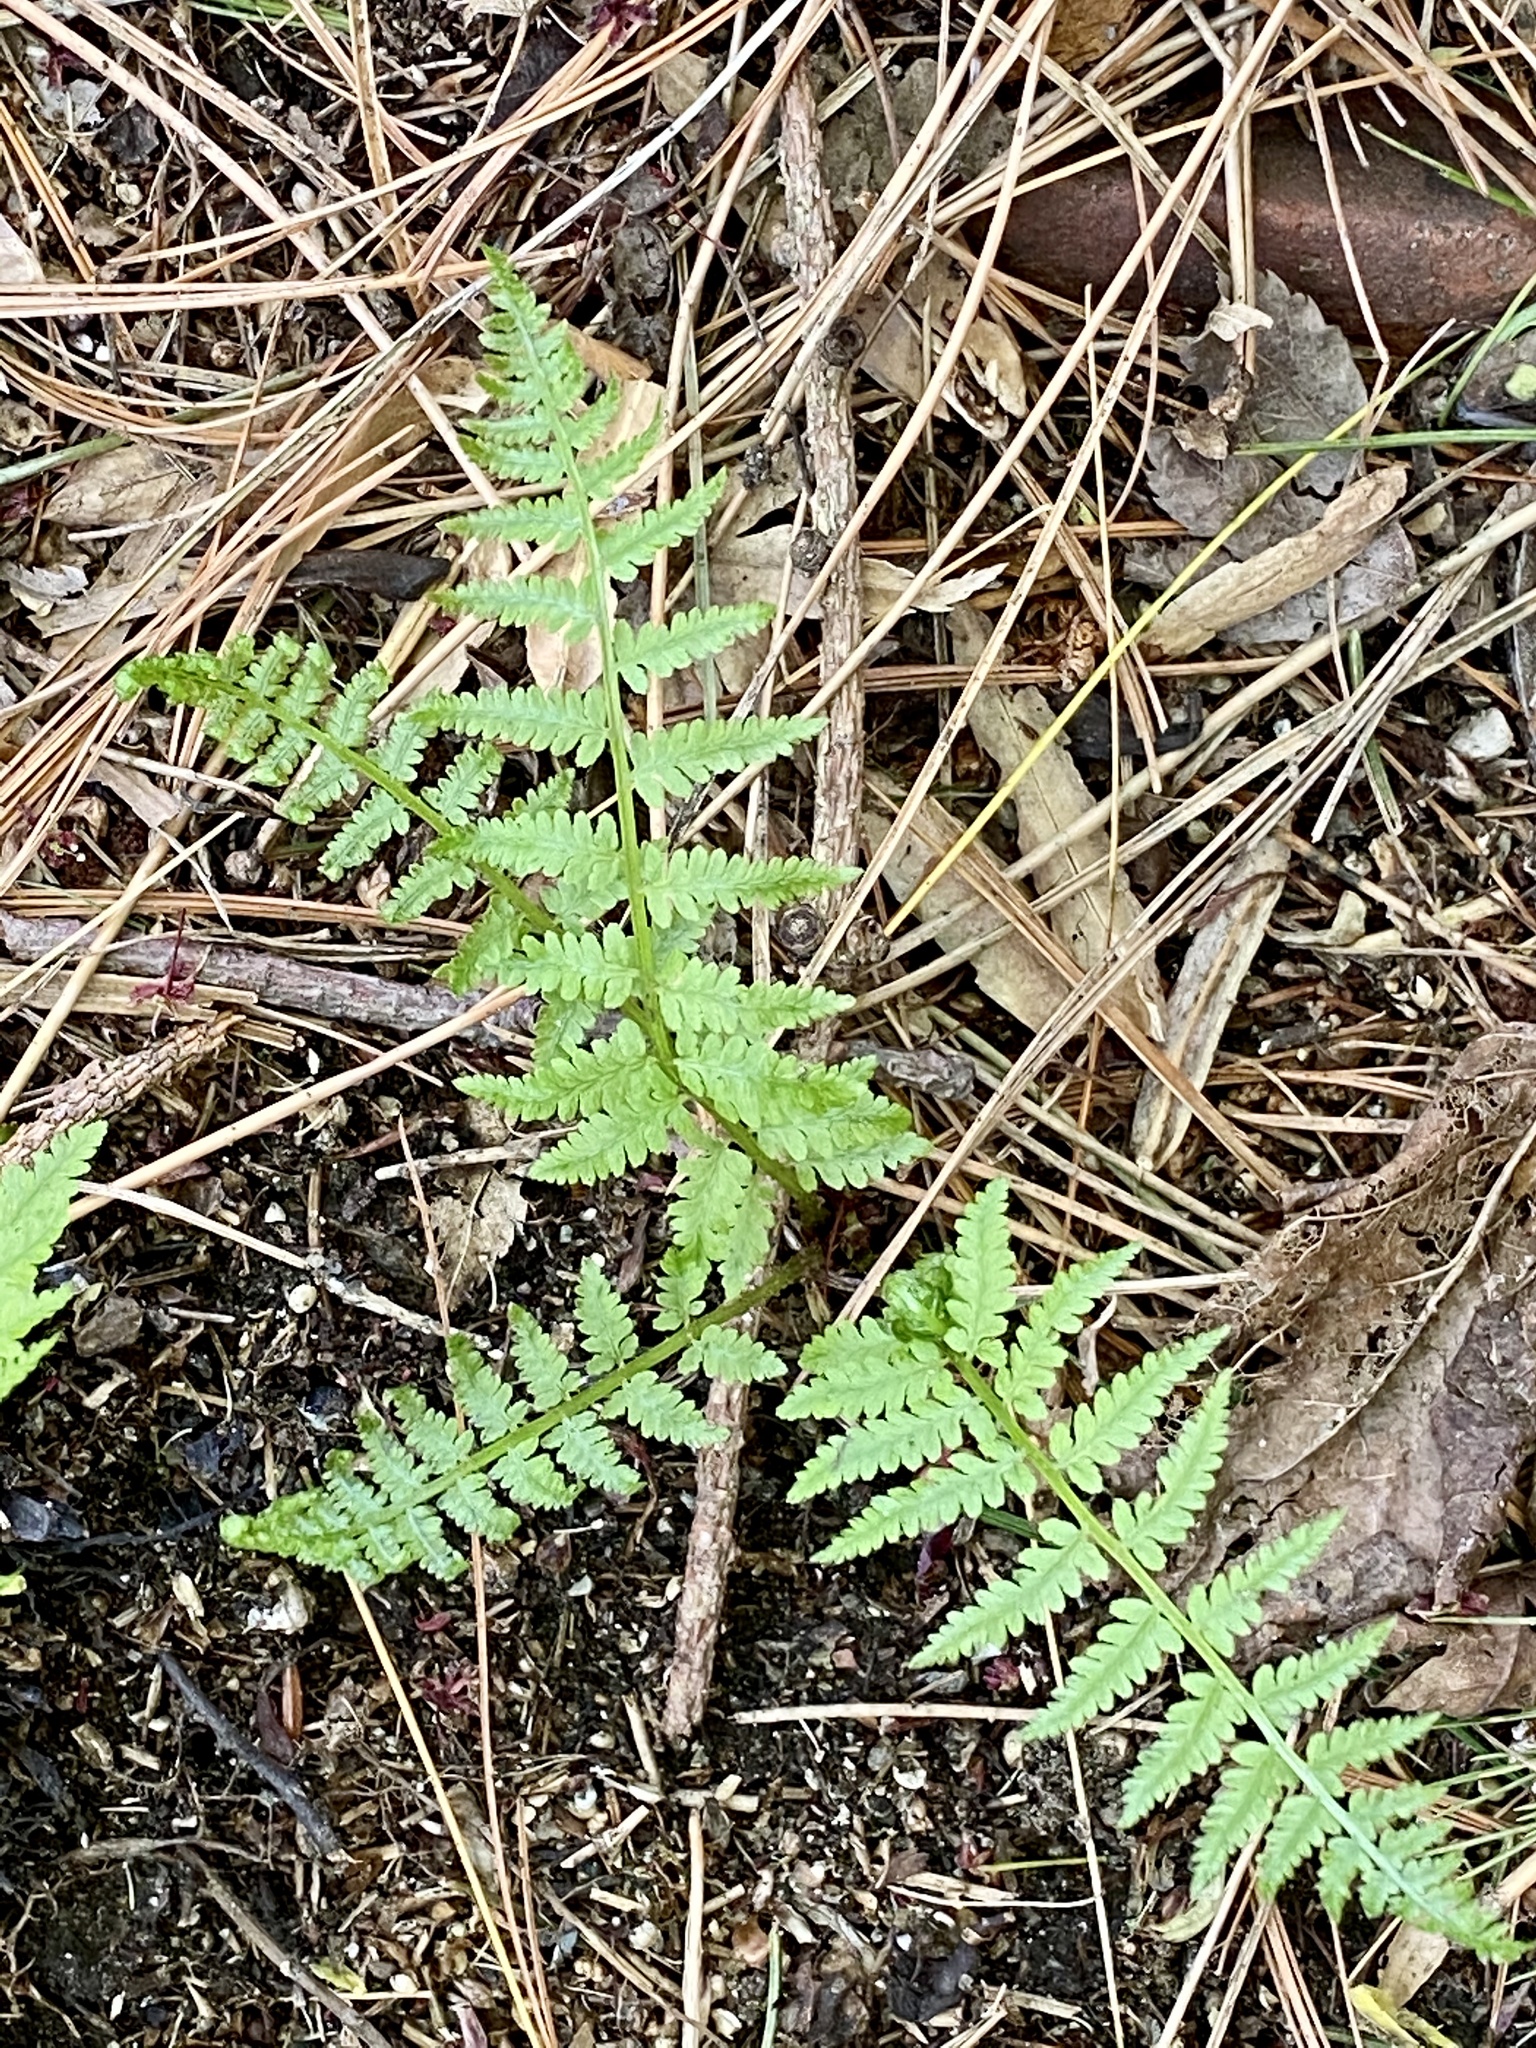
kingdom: Plantae
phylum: Tracheophyta
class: Polypodiopsida
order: Polypodiales
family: Athyriaceae
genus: Athyrium
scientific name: Athyrium angustum
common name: Northern lady fern
